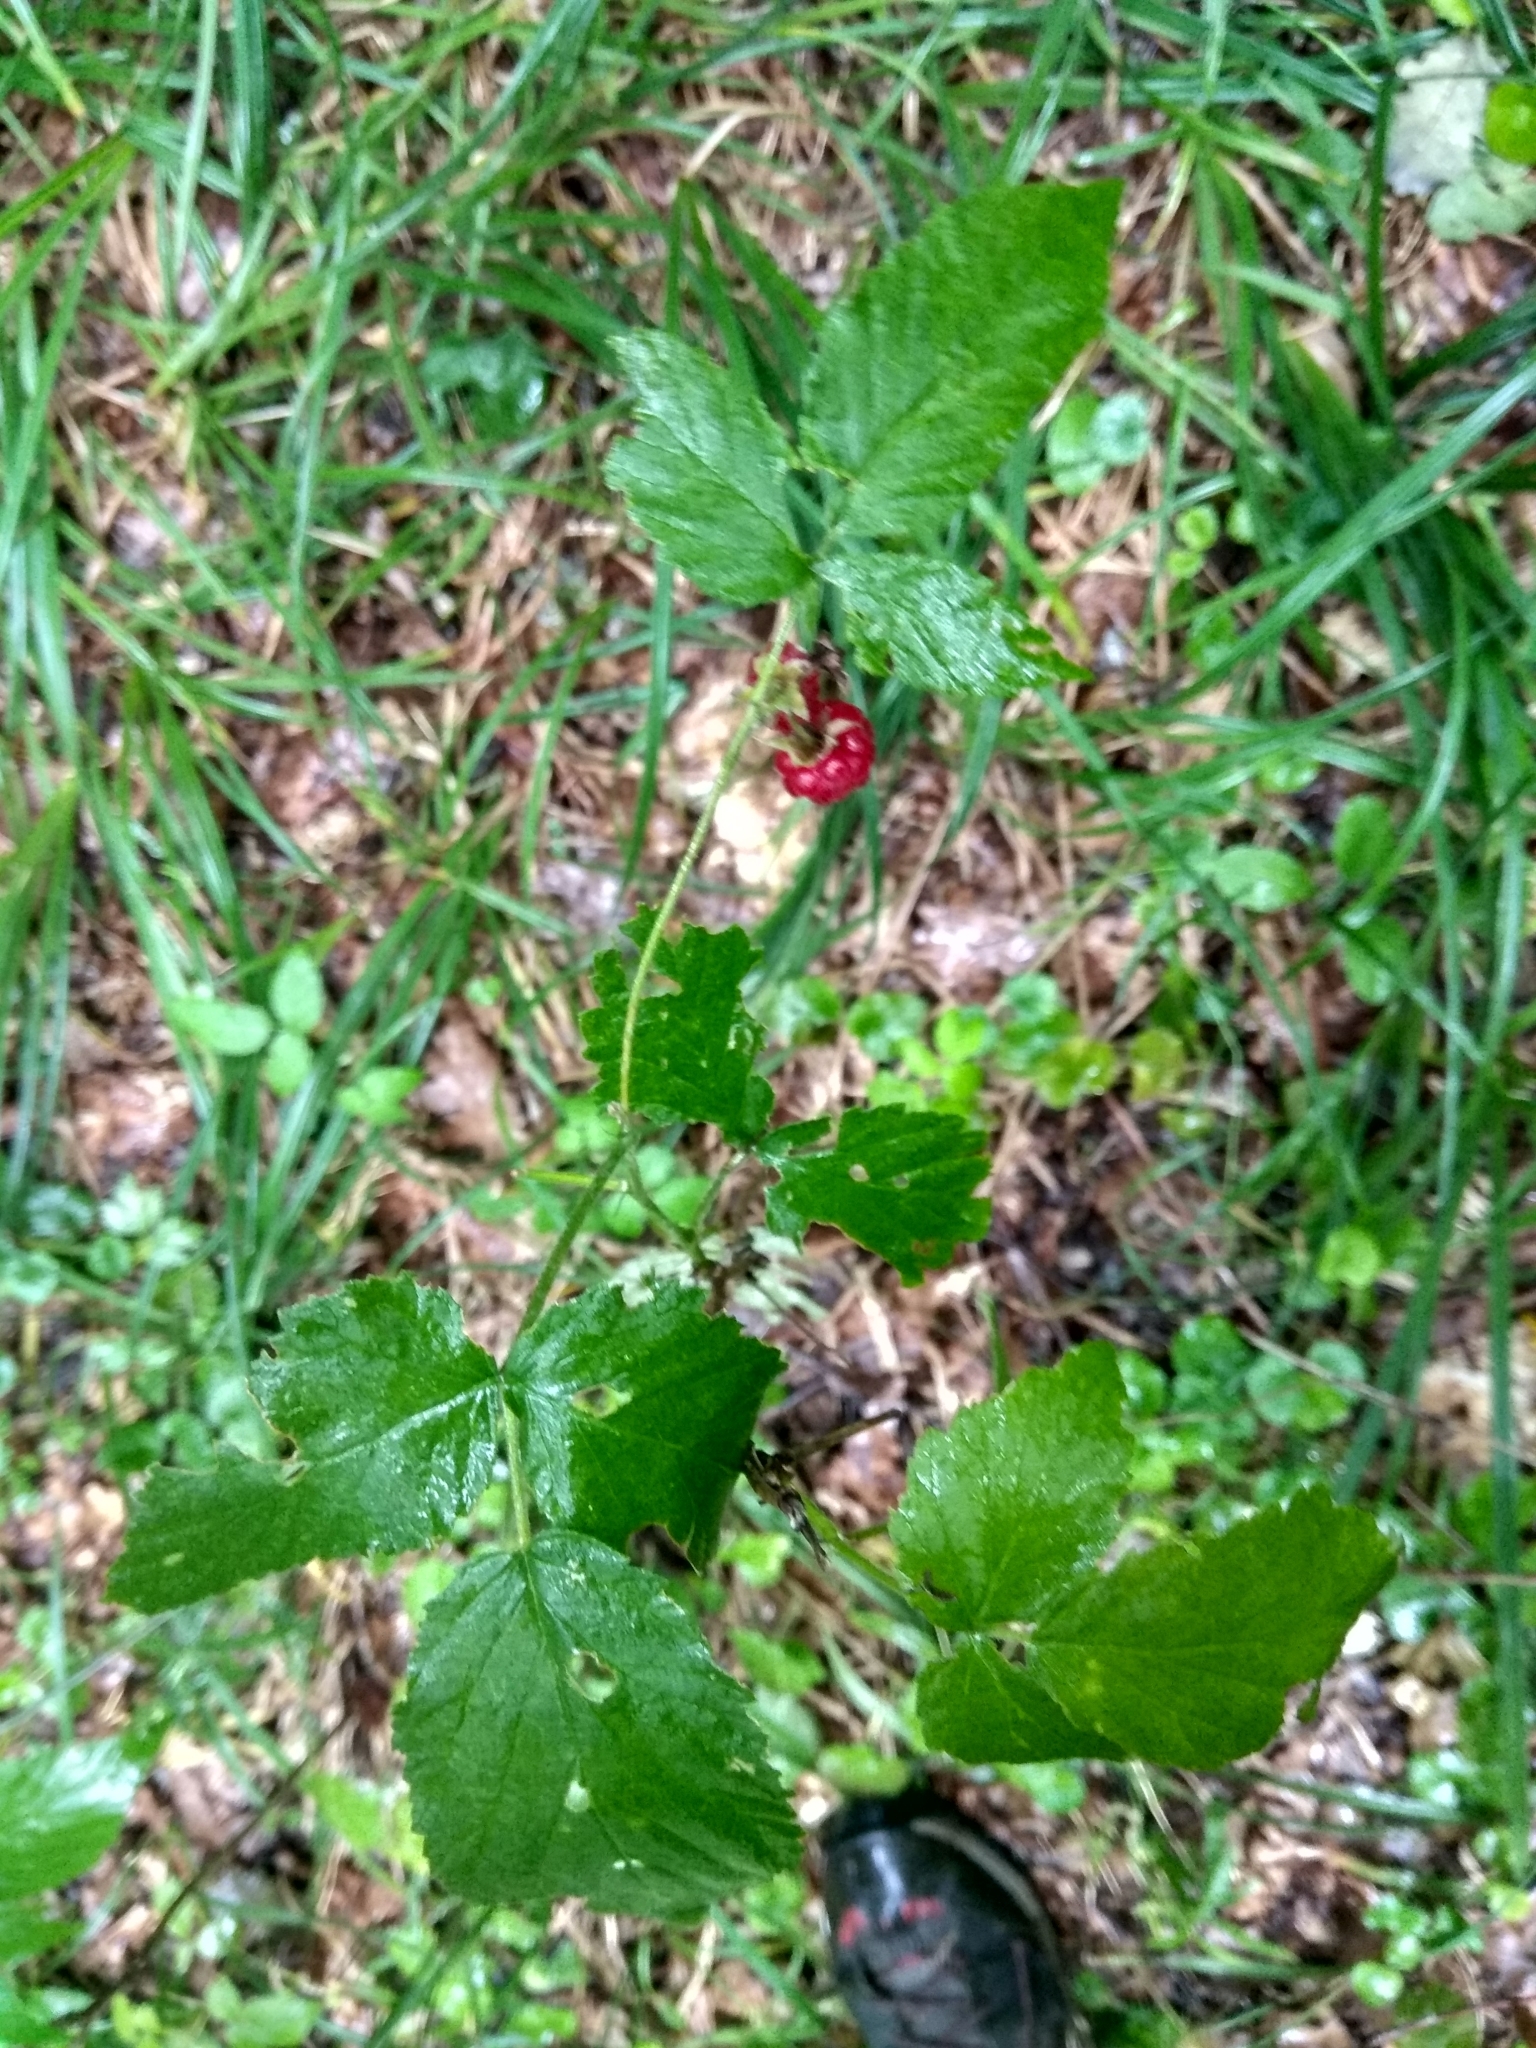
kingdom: Plantae
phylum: Tracheophyta
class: Magnoliopsida
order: Rosales
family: Rosaceae
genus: Rubus
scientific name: Rubus idaeus
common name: Raspberry
